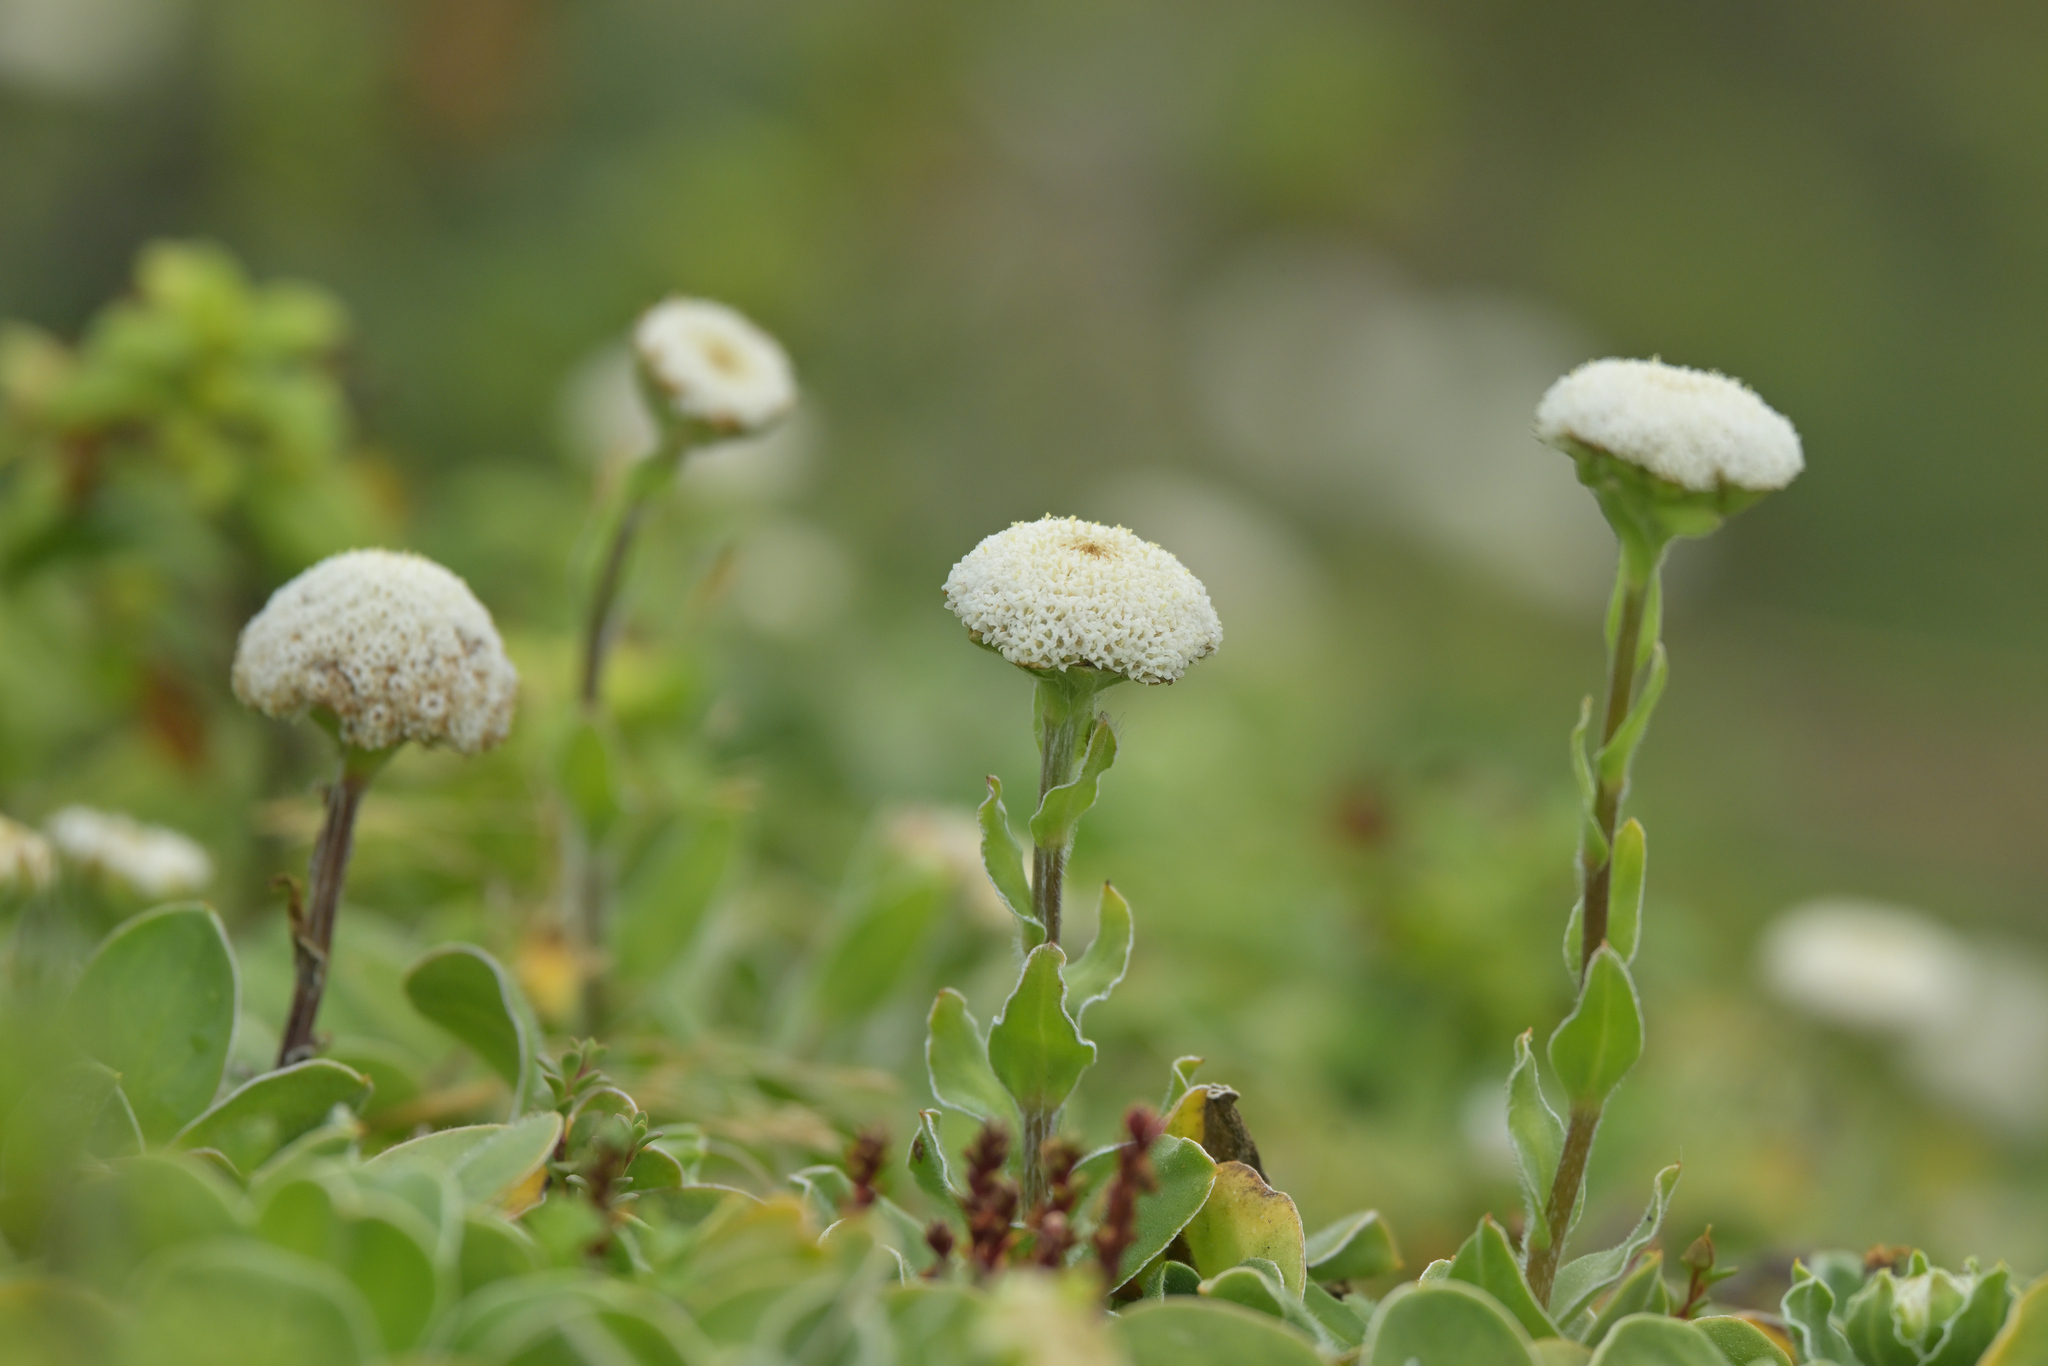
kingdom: Plantae
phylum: Tracheophyta
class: Magnoliopsida
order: Asterales
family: Asteraceae
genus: Craspedia
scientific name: Craspedia uniflora
